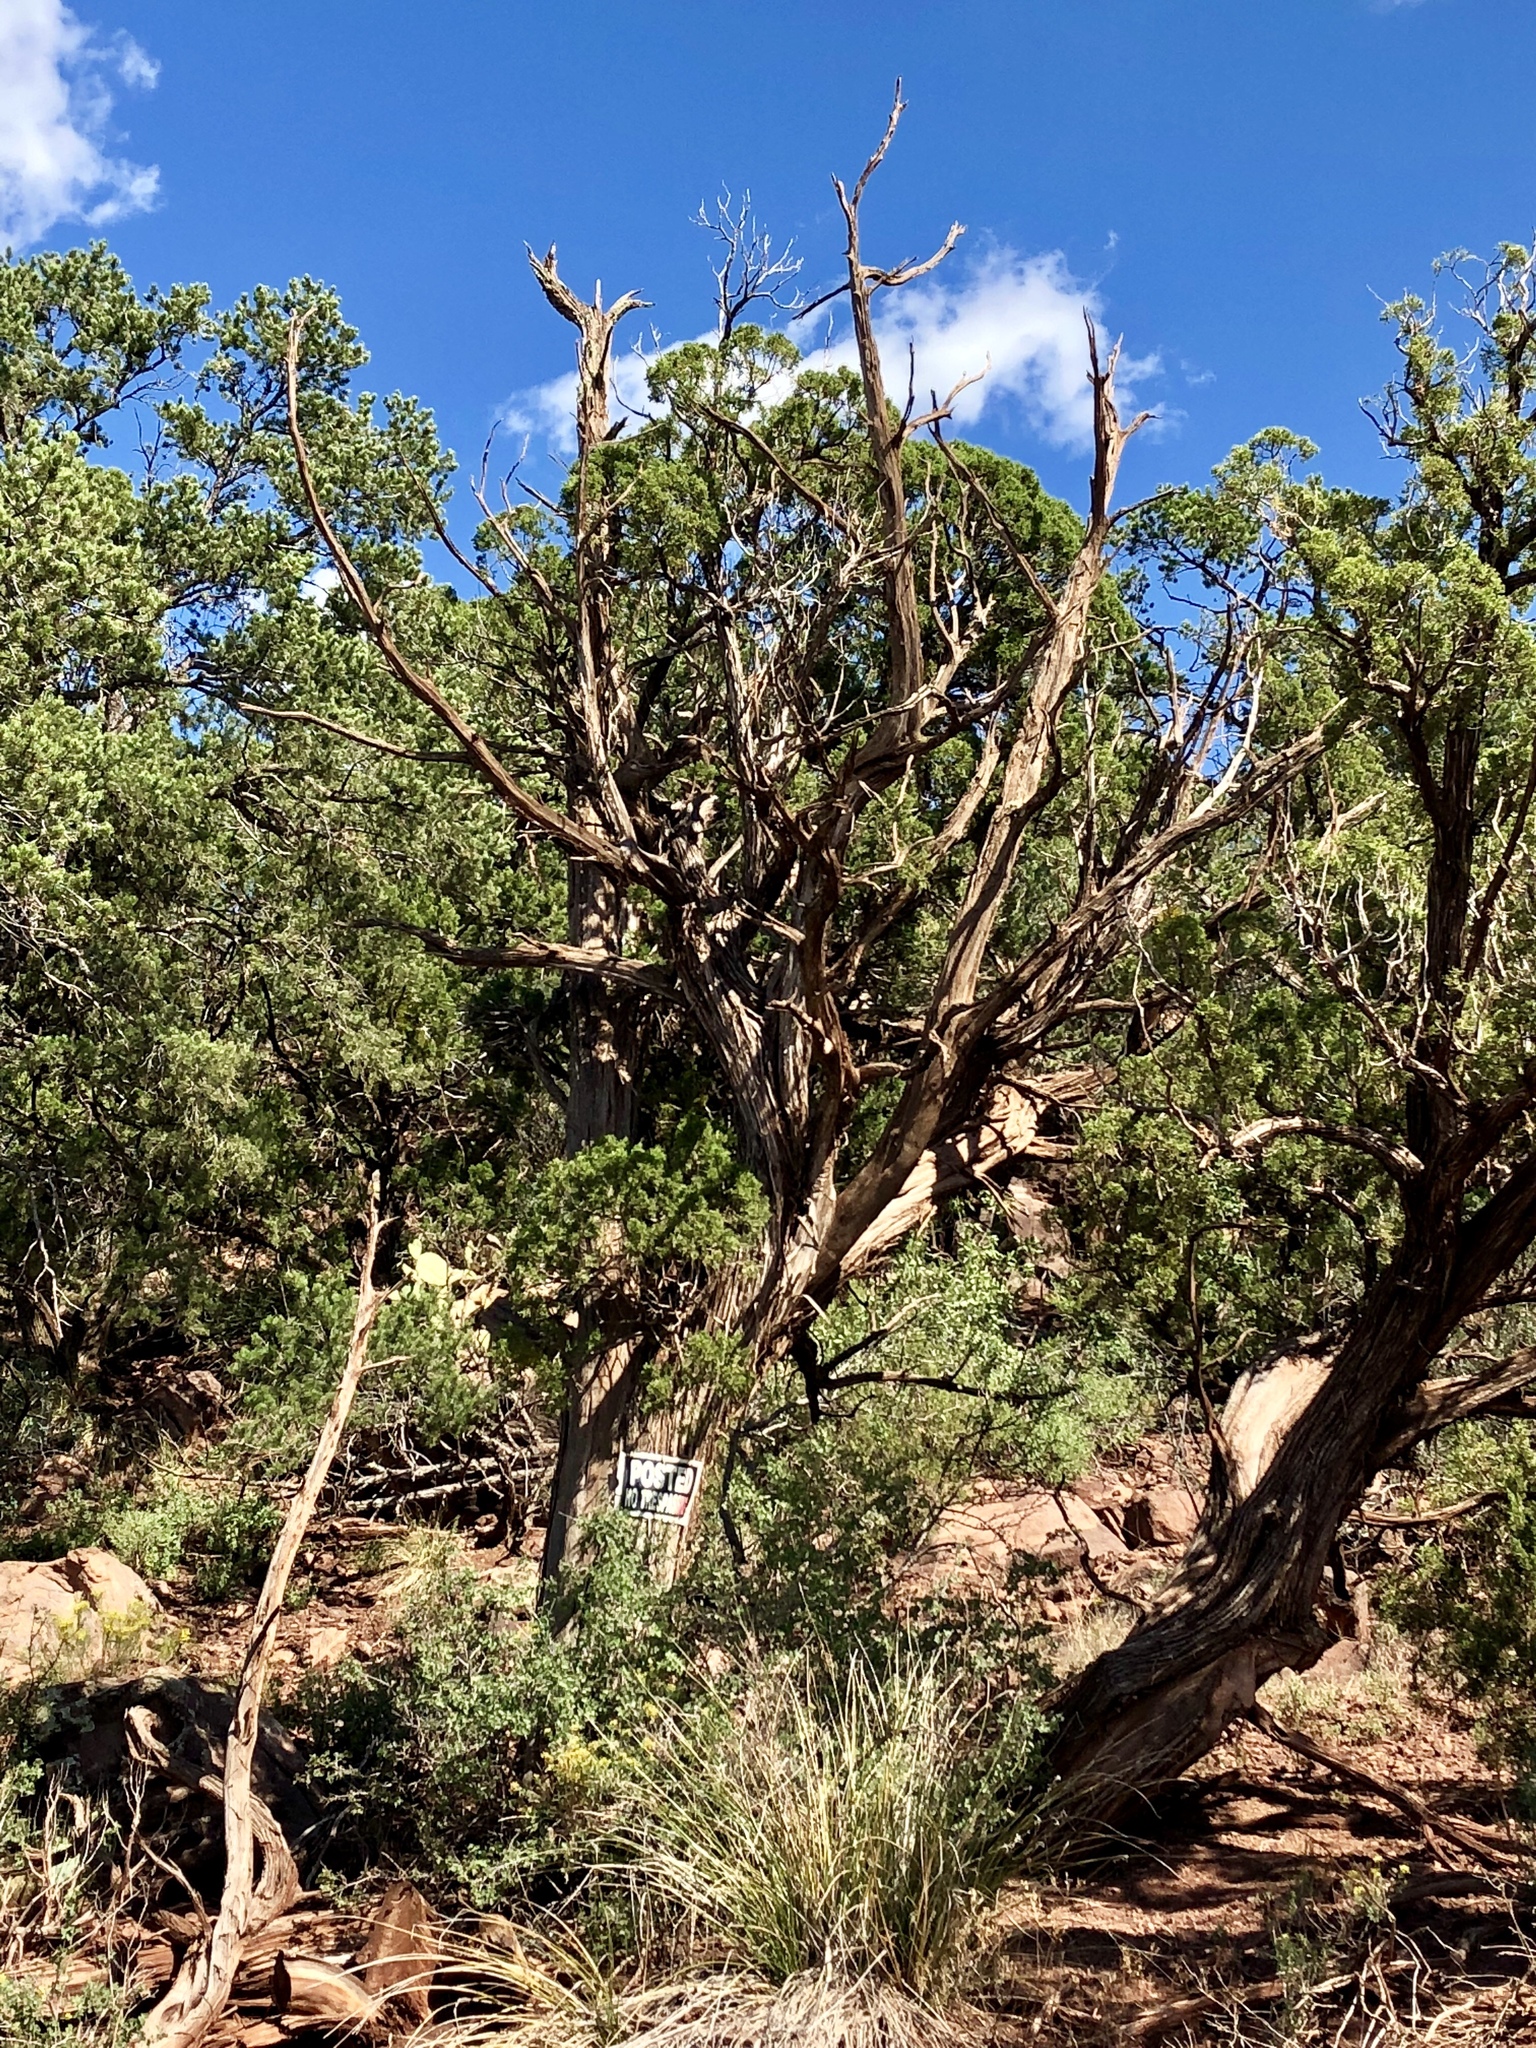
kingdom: Plantae
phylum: Tracheophyta
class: Pinopsida
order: Pinales
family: Cupressaceae
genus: Juniperus
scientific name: Juniperus monosperma
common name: One-seed juniper
